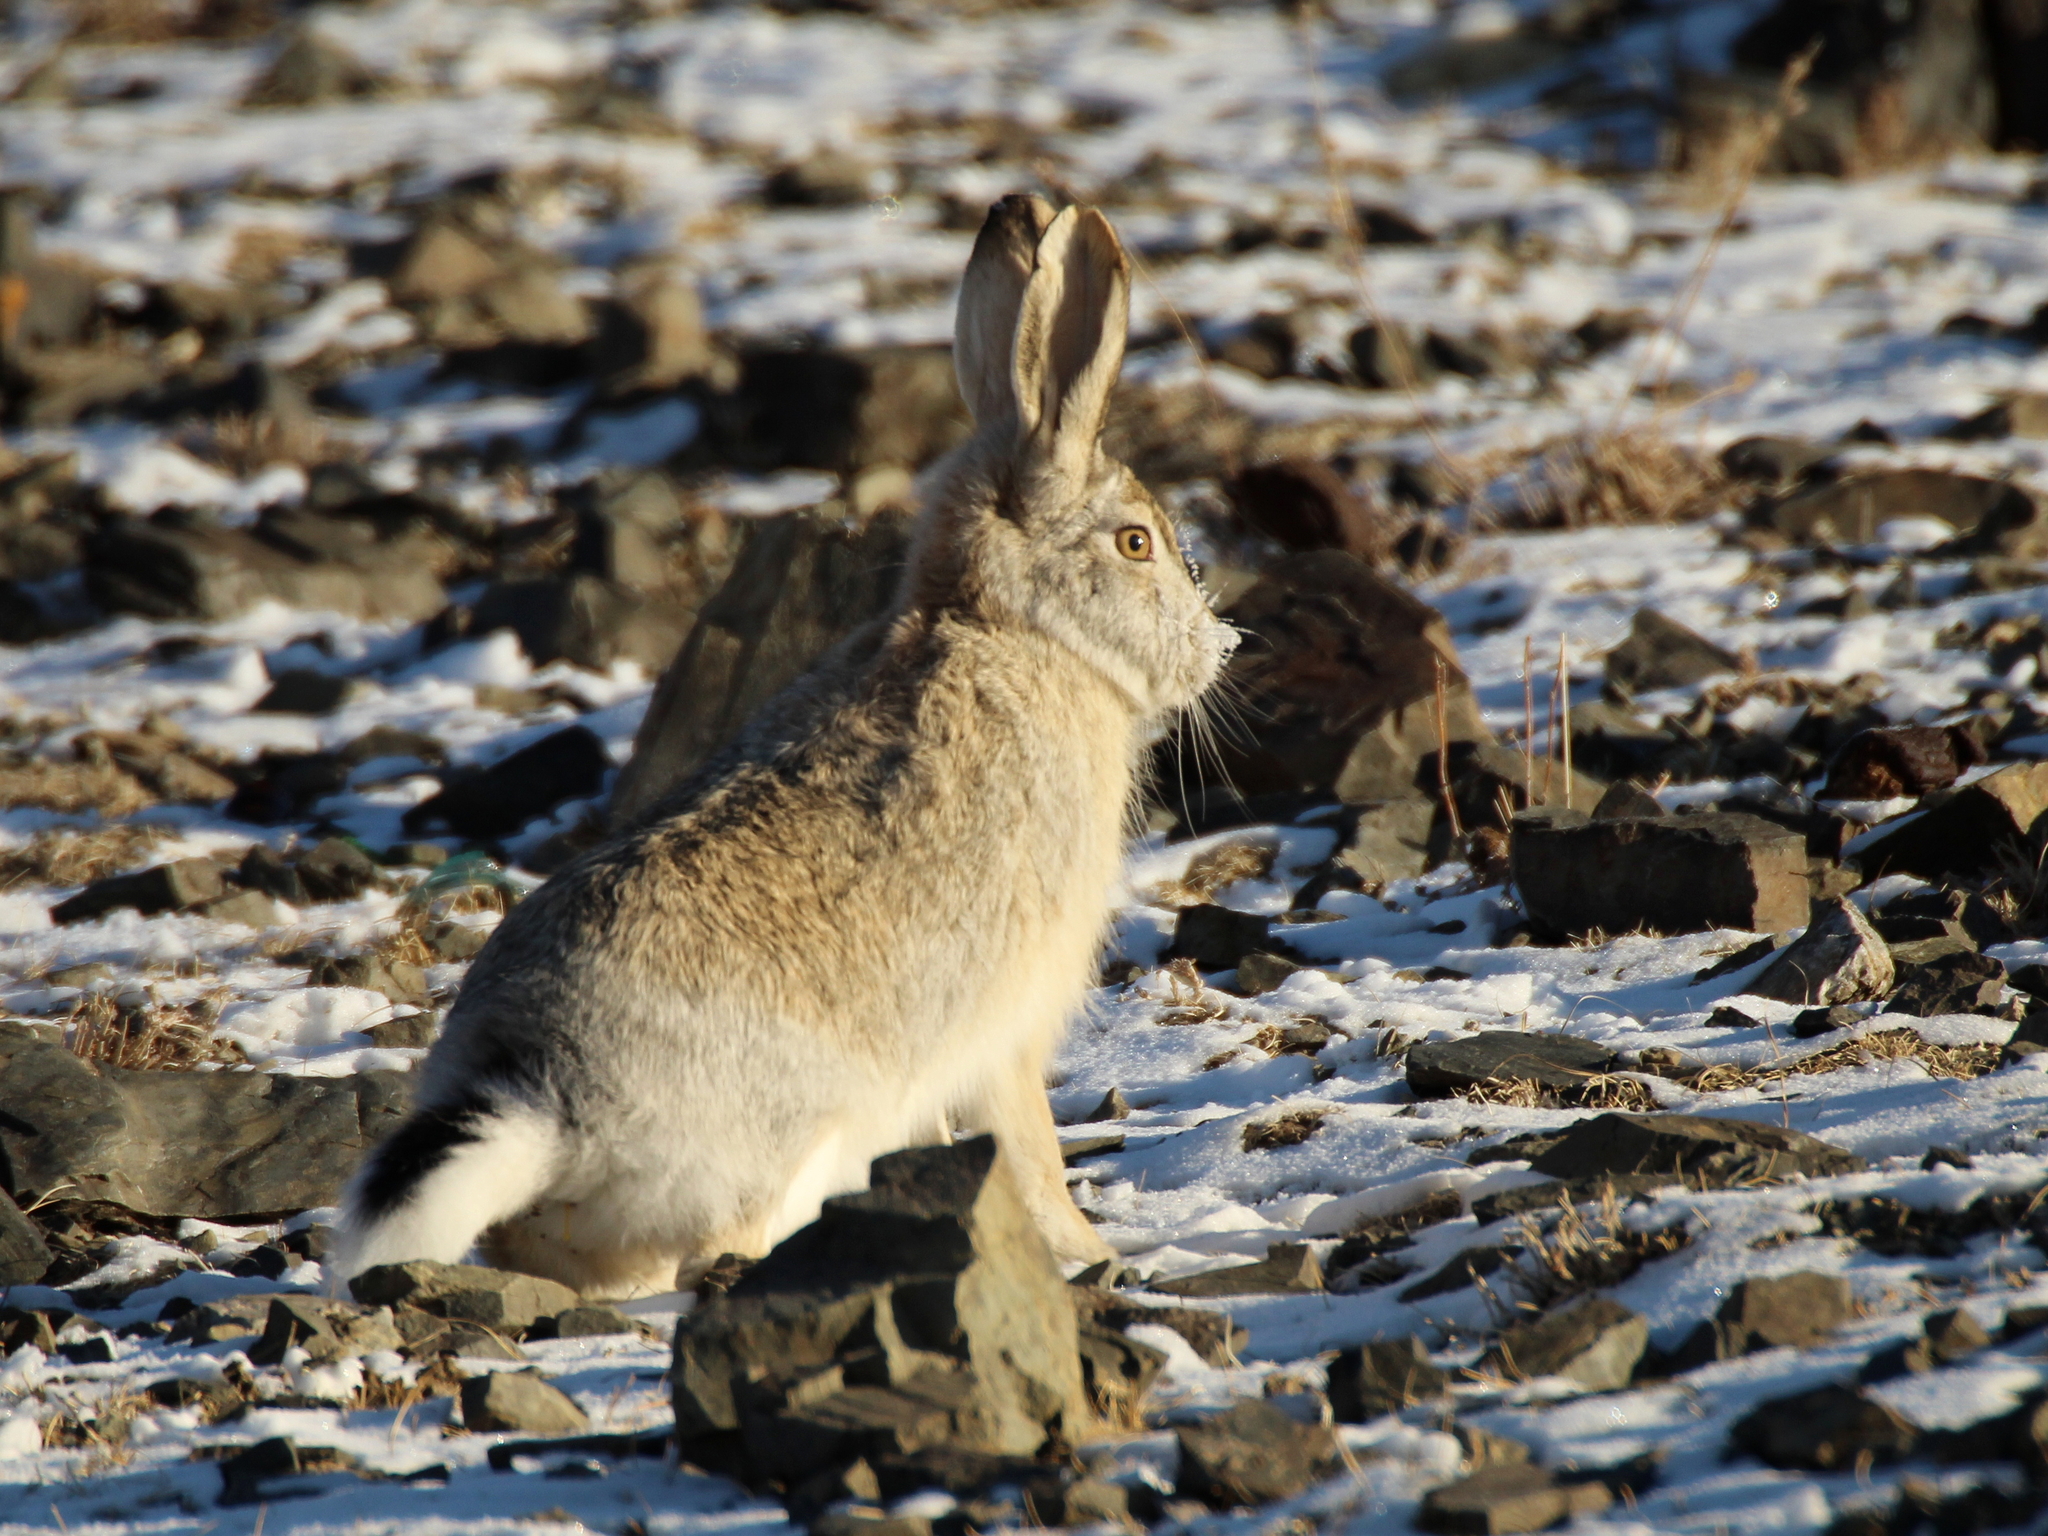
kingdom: Animalia
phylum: Chordata
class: Mammalia
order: Lagomorpha
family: Leporidae
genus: Lepus
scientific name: Lepus tolai
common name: Tolai hare
